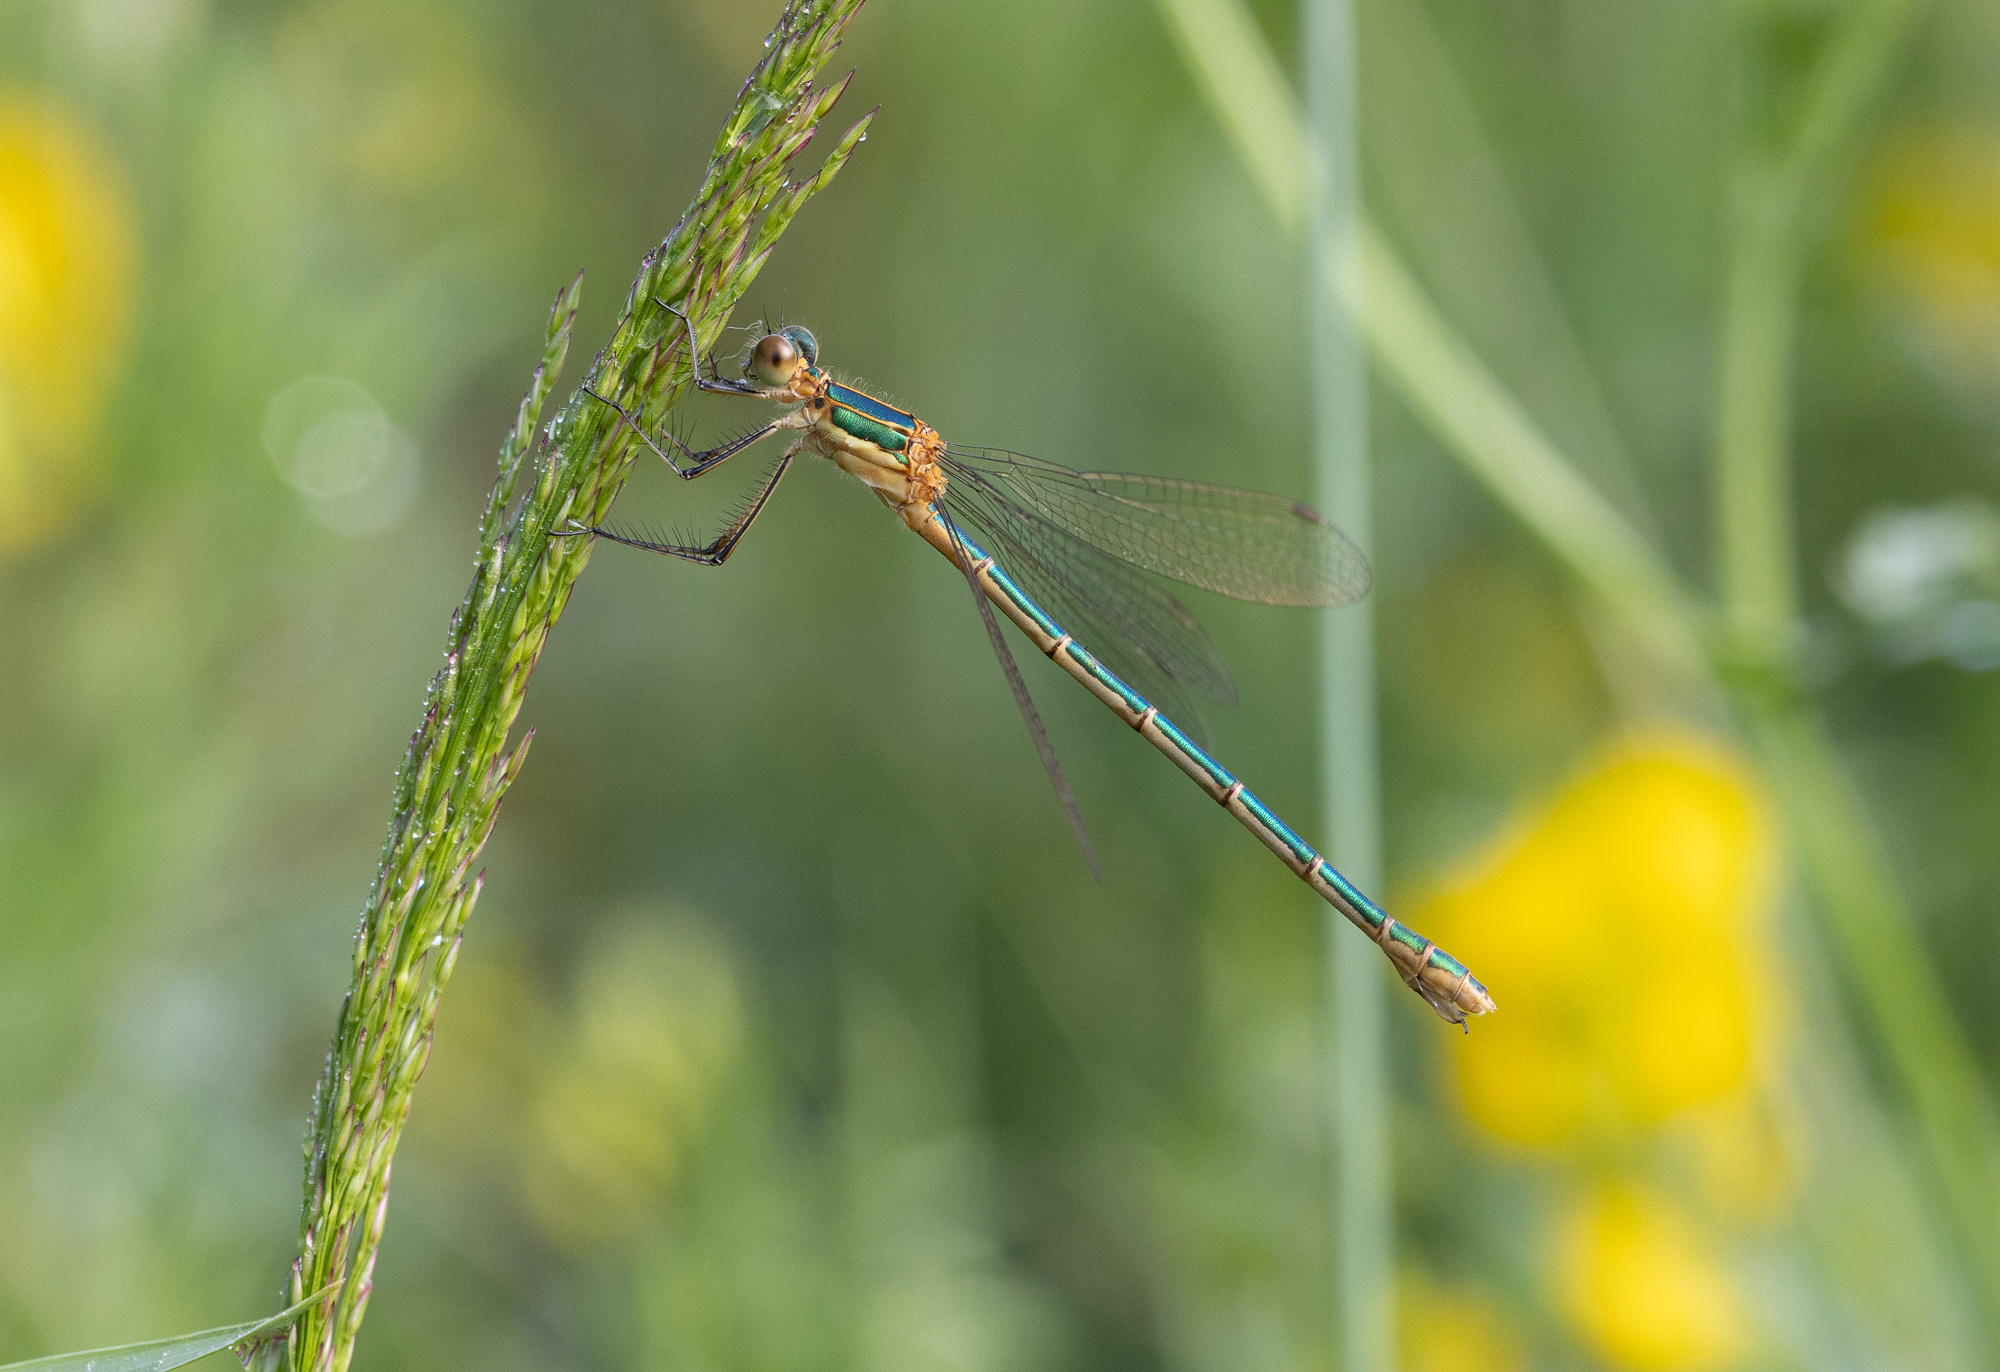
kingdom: Animalia
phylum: Arthropoda
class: Insecta
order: Odonata
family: Lestidae
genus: Lestes
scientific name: Lestes sponsa
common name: Common spreadwing
